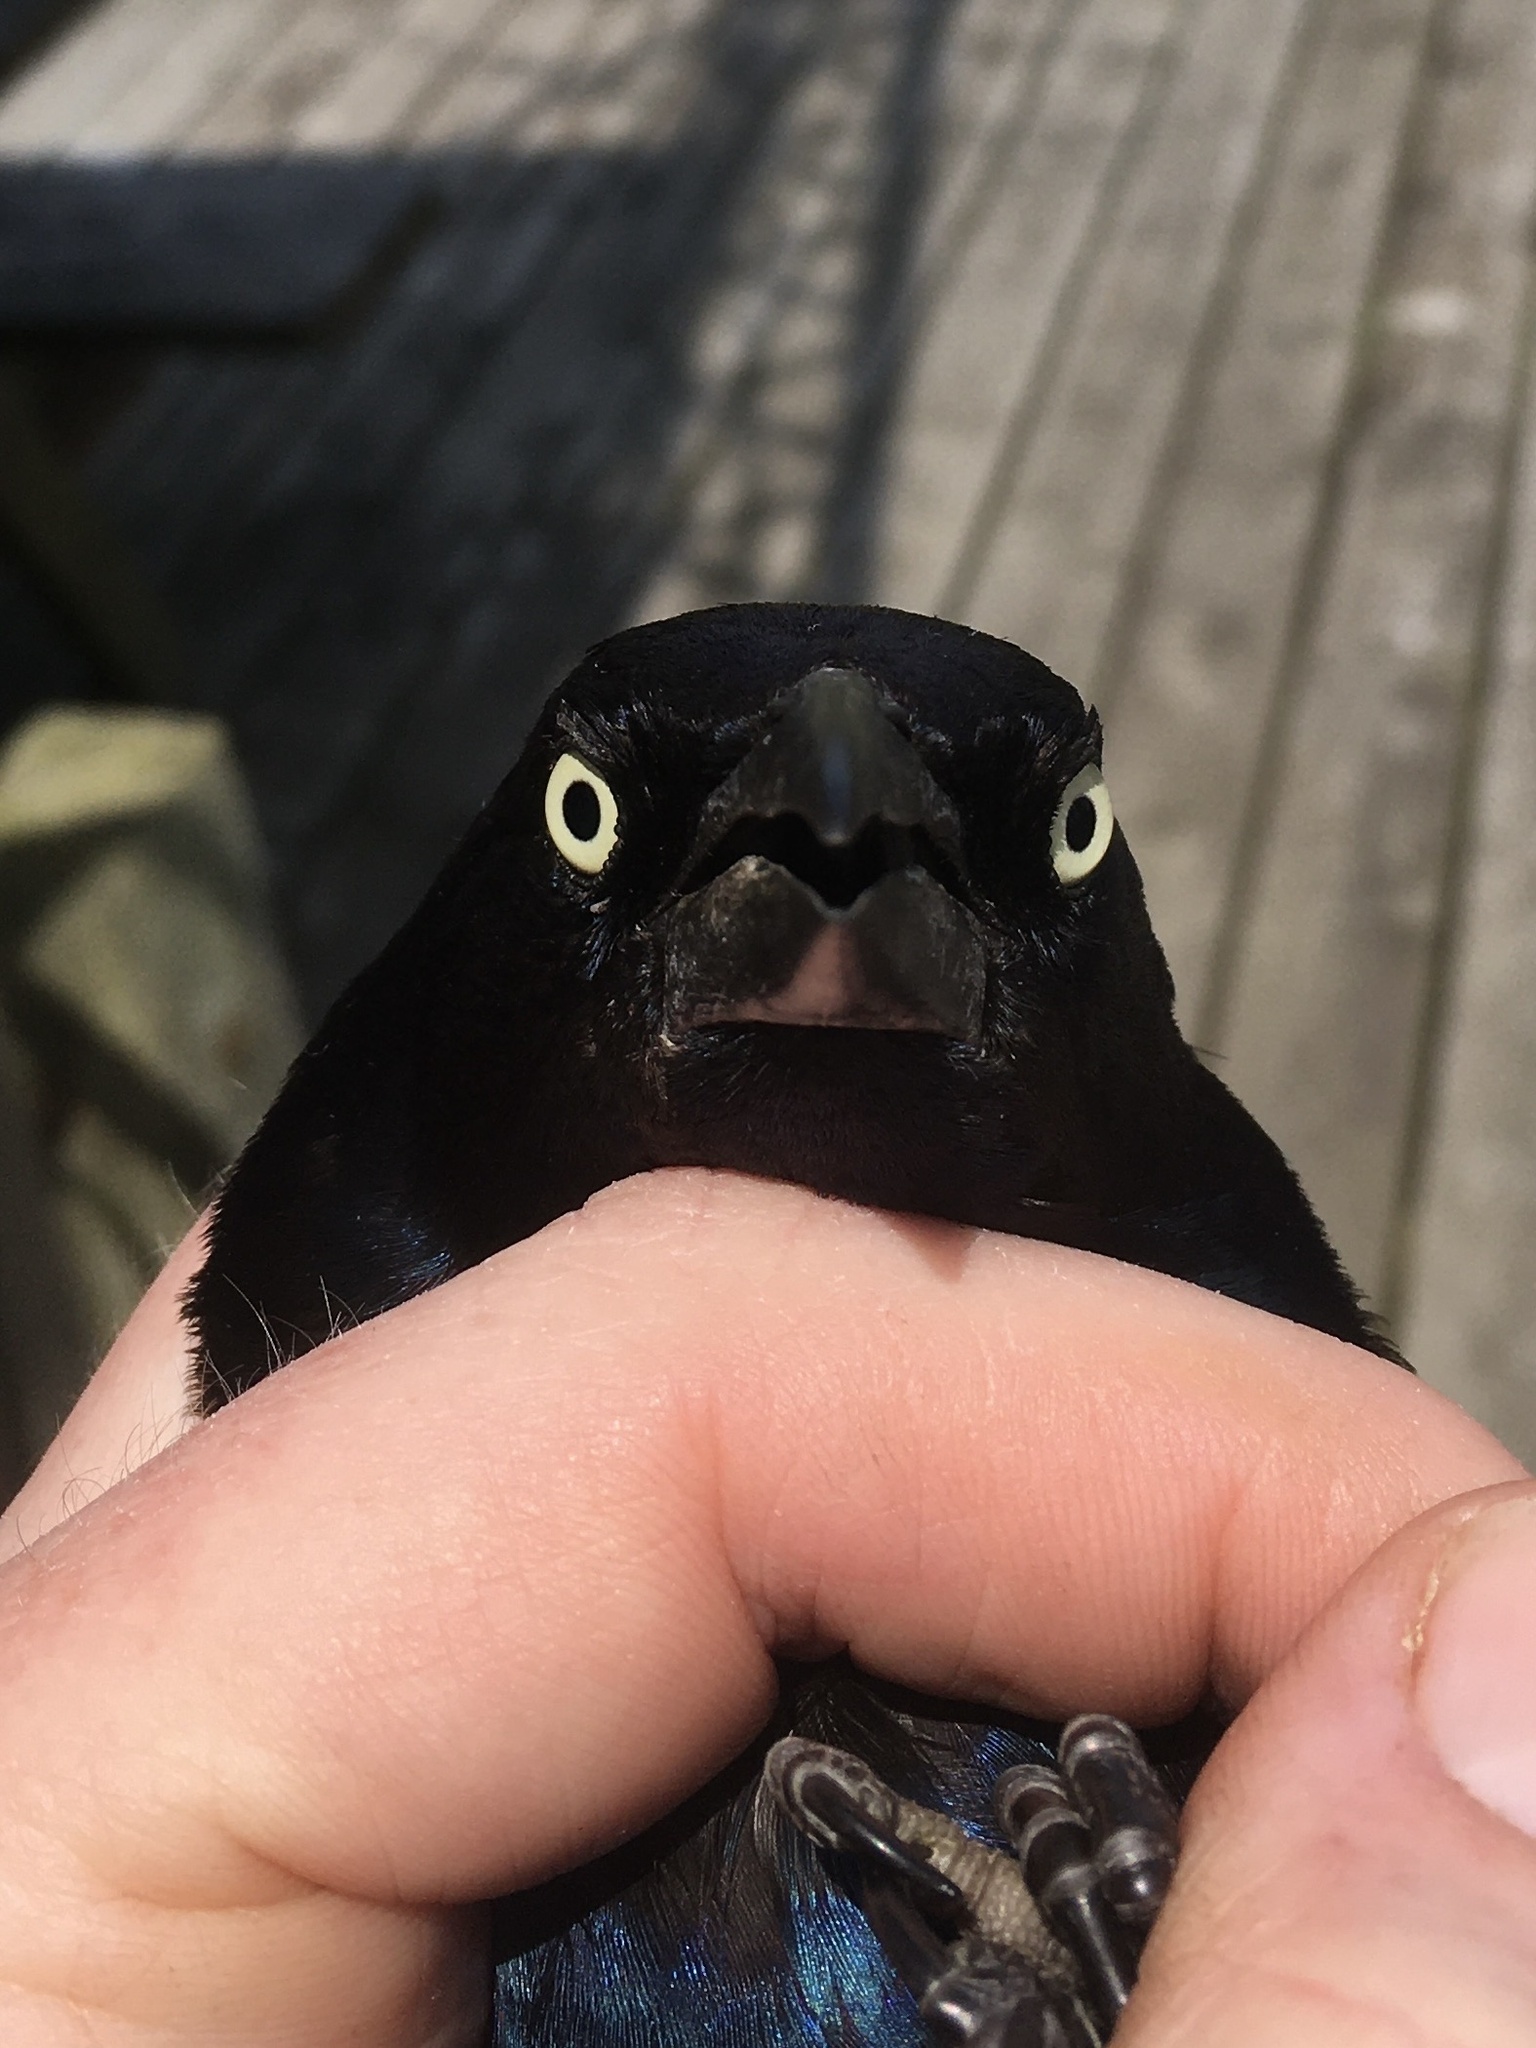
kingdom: Animalia
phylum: Chordata
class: Aves
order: Passeriformes
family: Icteridae
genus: Quiscalus
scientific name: Quiscalus quiscula
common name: Common grackle
